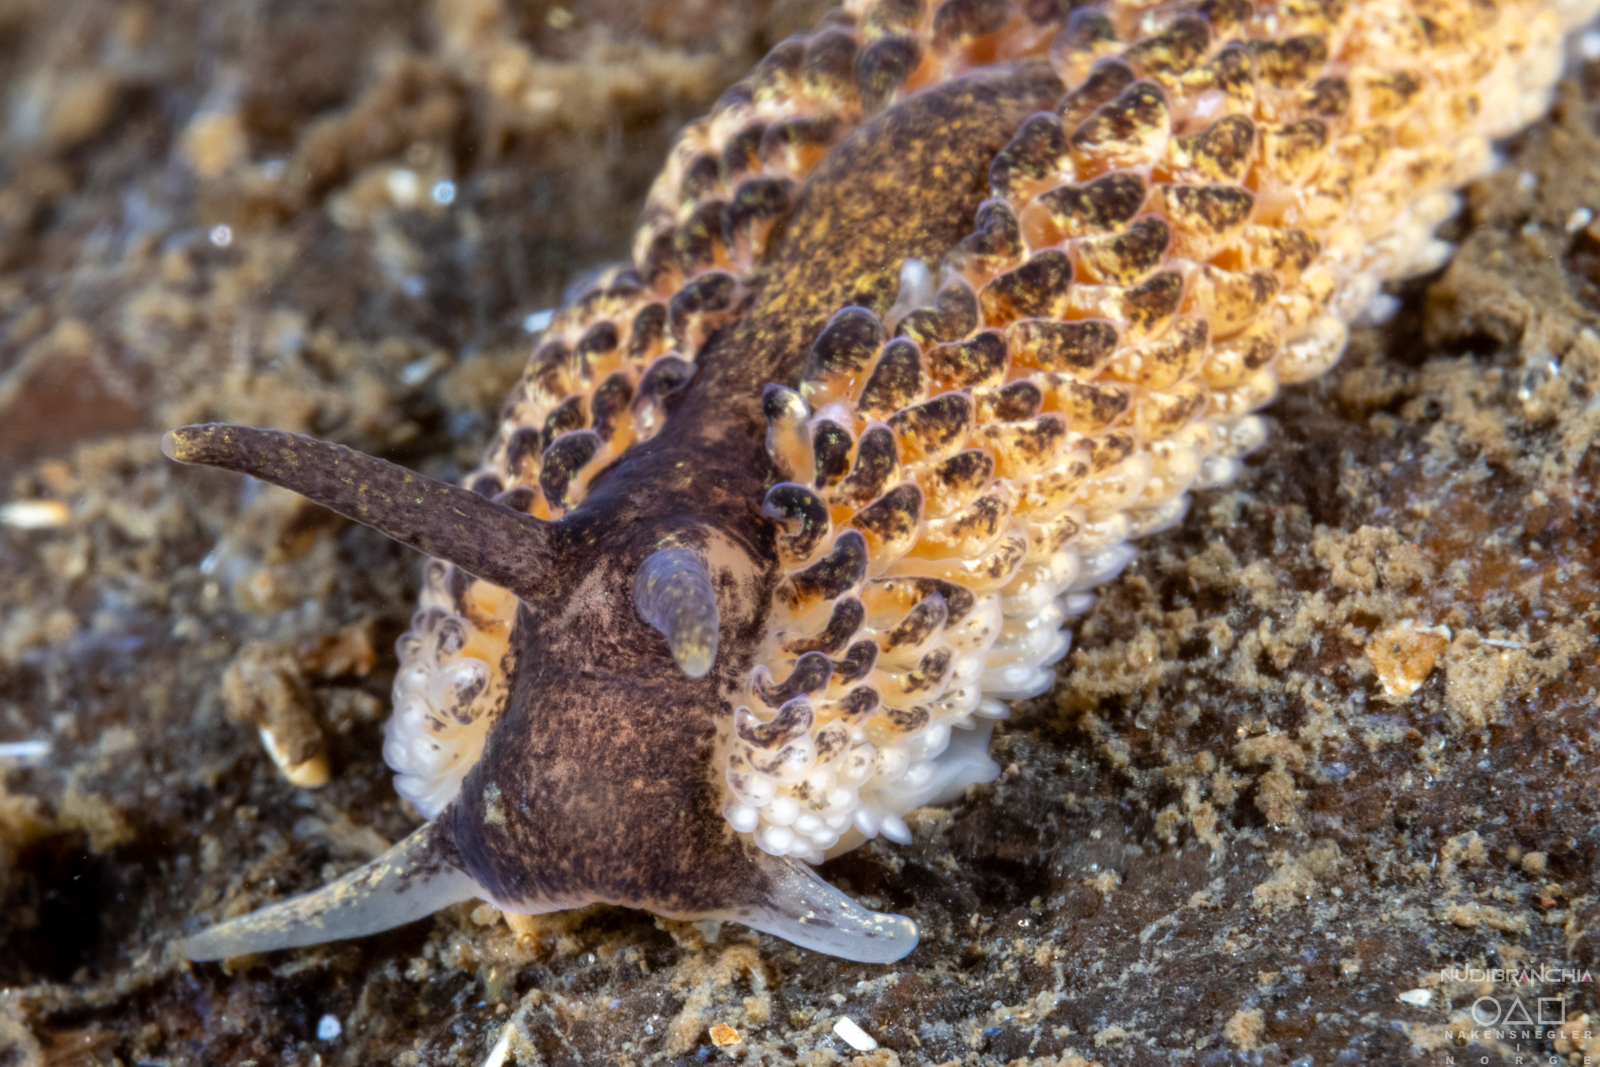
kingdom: Animalia
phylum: Mollusca
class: Gastropoda
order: Nudibranchia
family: Aeolidiidae
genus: Aeolidia
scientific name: Aeolidia papillosa
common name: Common grey sea slug
